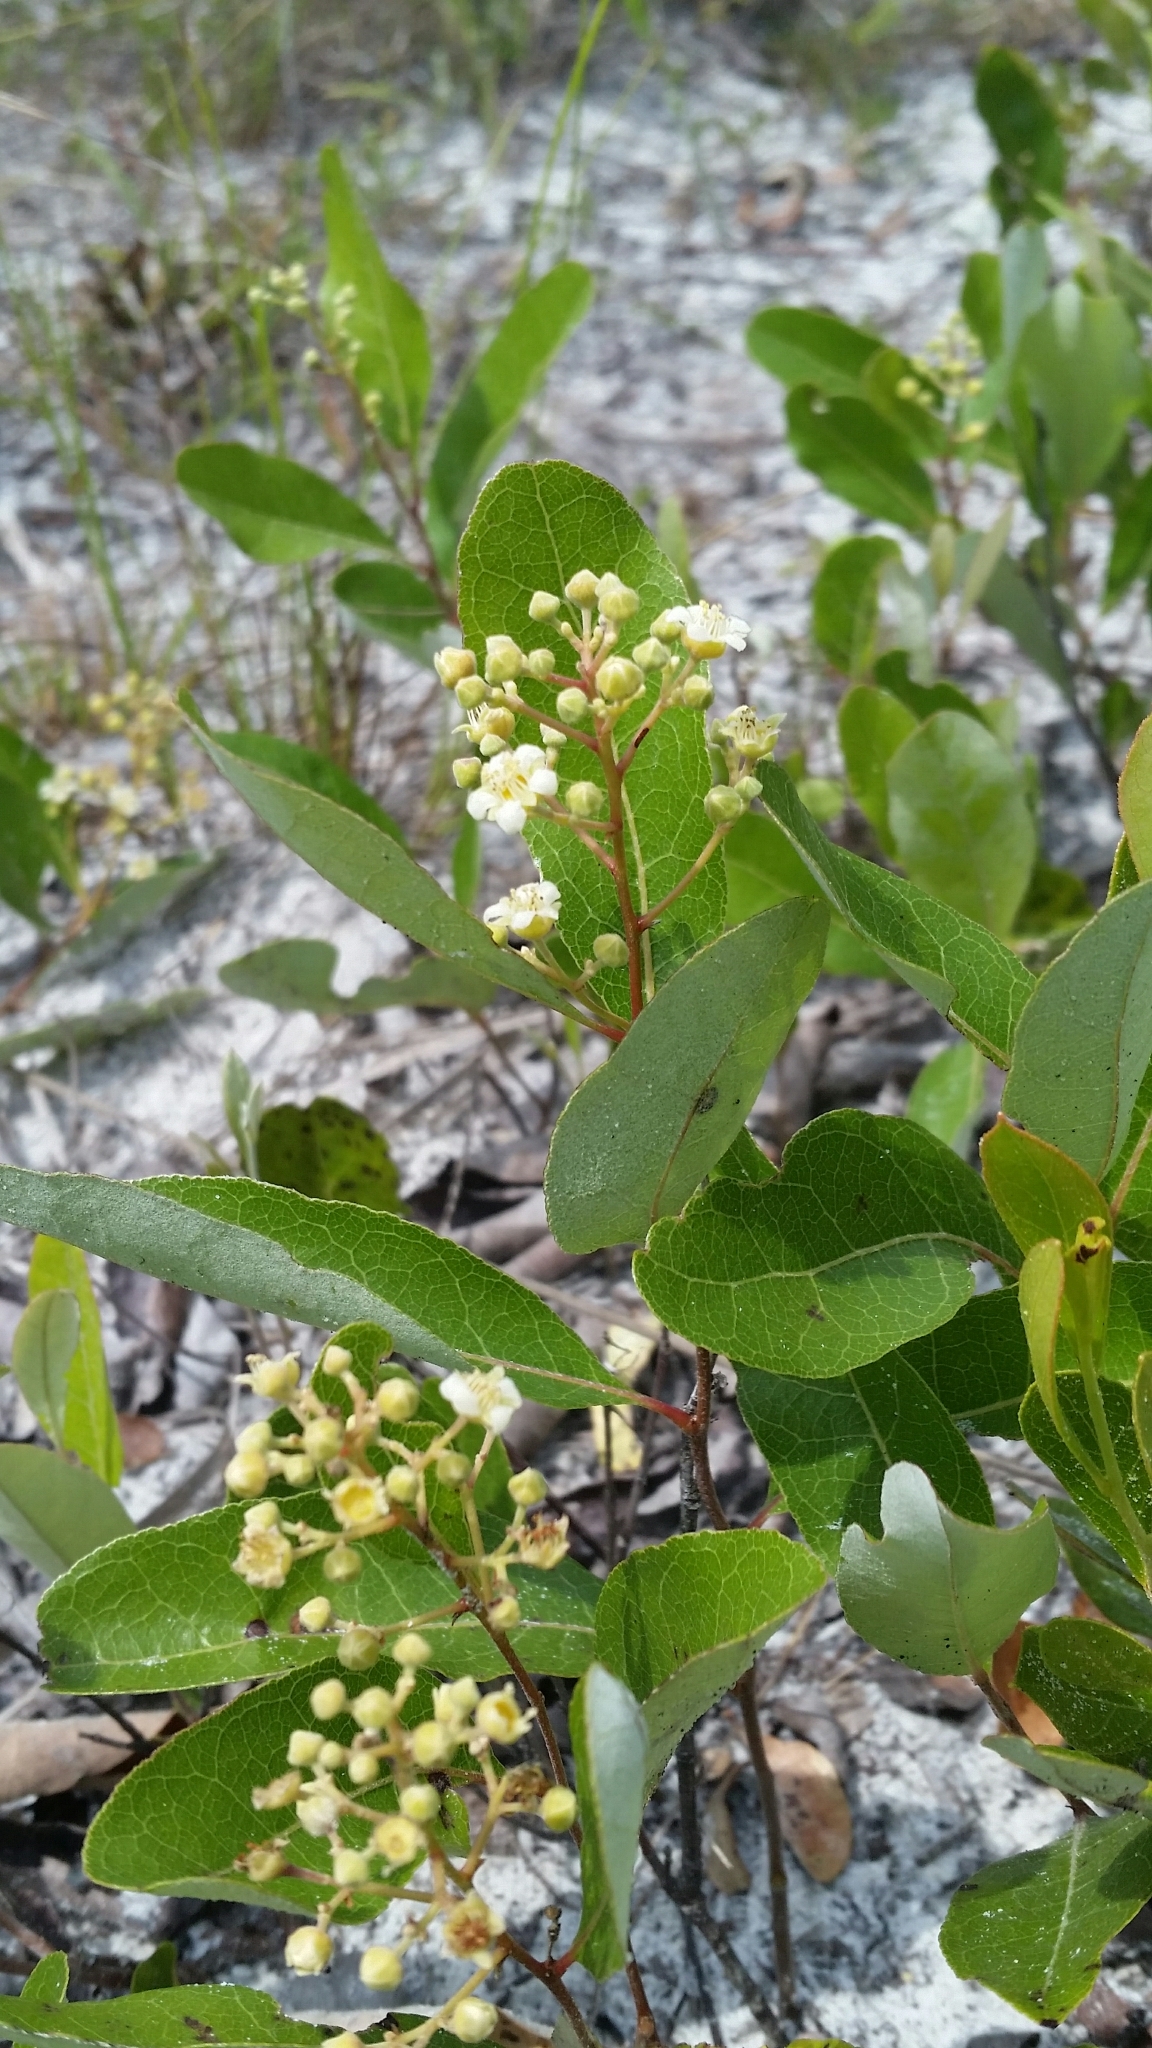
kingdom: Plantae
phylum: Tracheophyta
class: Magnoliopsida
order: Malpighiales
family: Chrysobalanaceae
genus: Geobalanus
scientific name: Geobalanus oblongifolius
